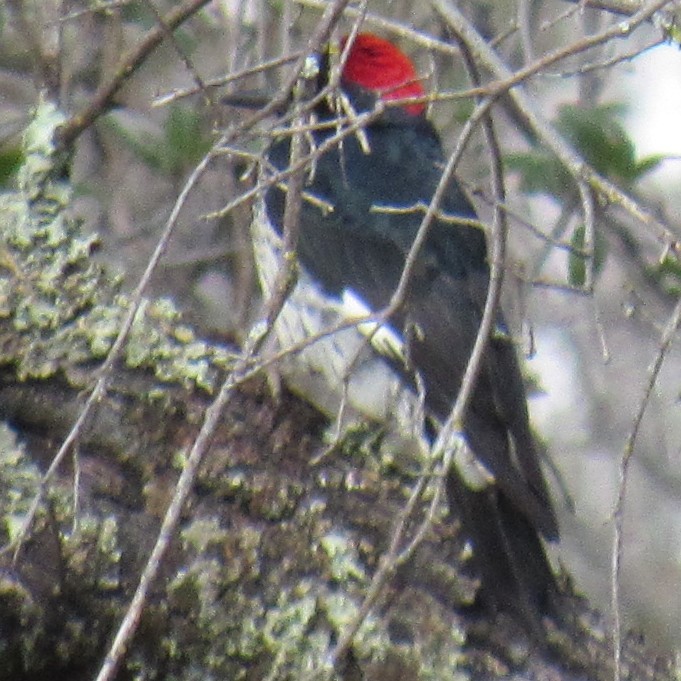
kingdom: Animalia
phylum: Chordata
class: Aves
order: Piciformes
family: Picidae
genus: Melanerpes
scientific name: Melanerpes formicivorus
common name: Acorn woodpecker
